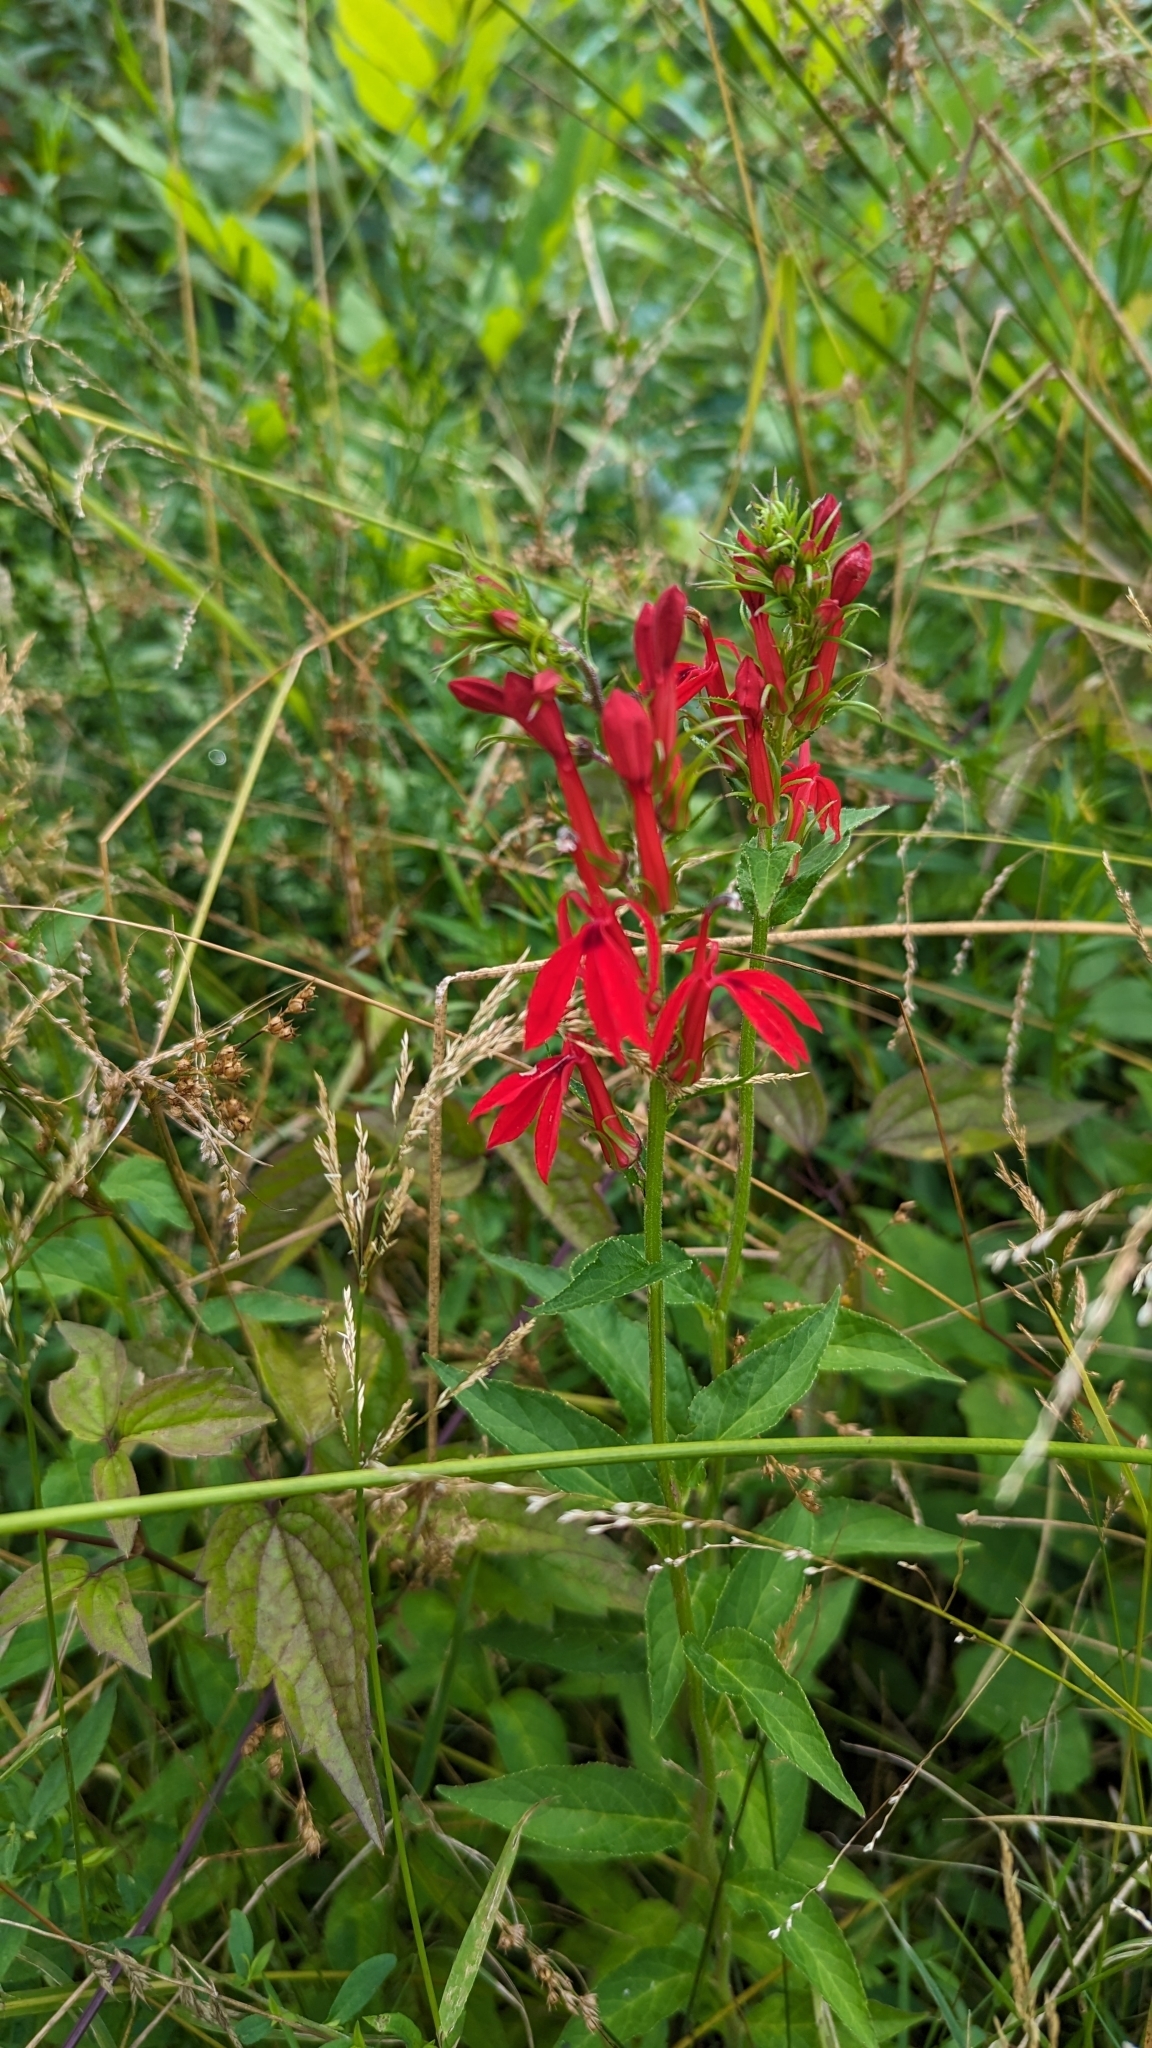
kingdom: Plantae
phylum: Tracheophyta
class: Magnoliopsida
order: Asterales
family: Campanulaceae
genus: Lobelia
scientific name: Lobelia cardinalis
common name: Cardinal flower
